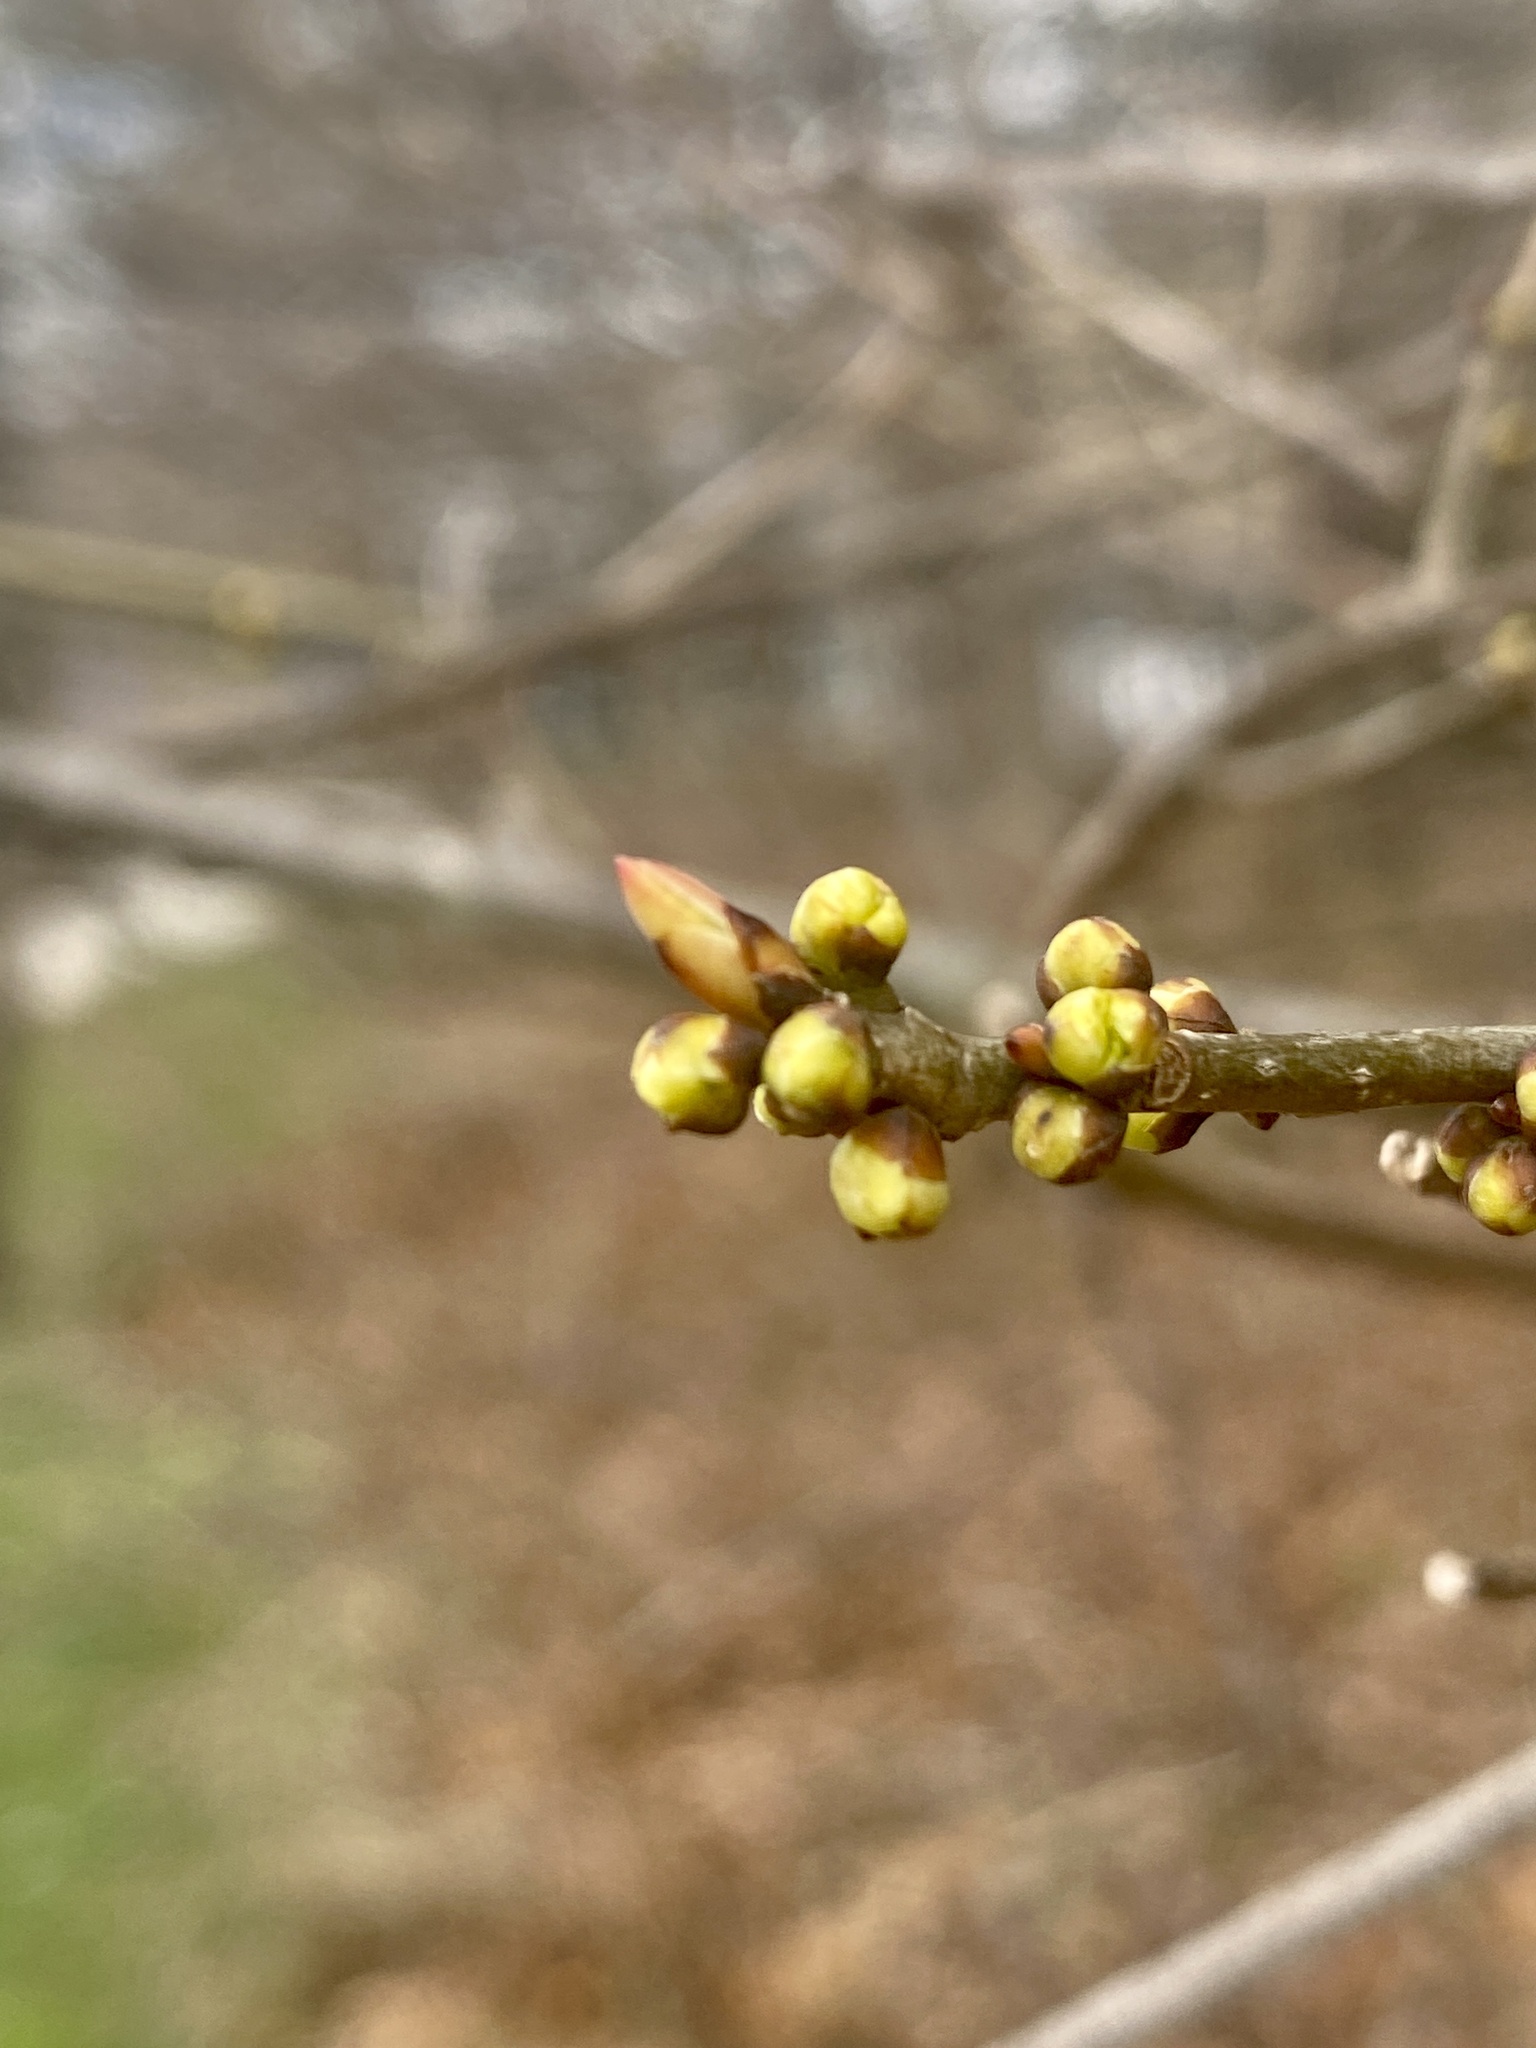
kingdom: Plantae
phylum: Tracheophyta
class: Magnoliopsida
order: Laurales
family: Lauraceae
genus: Lindera
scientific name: Lindera benzoin
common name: Spicebush
